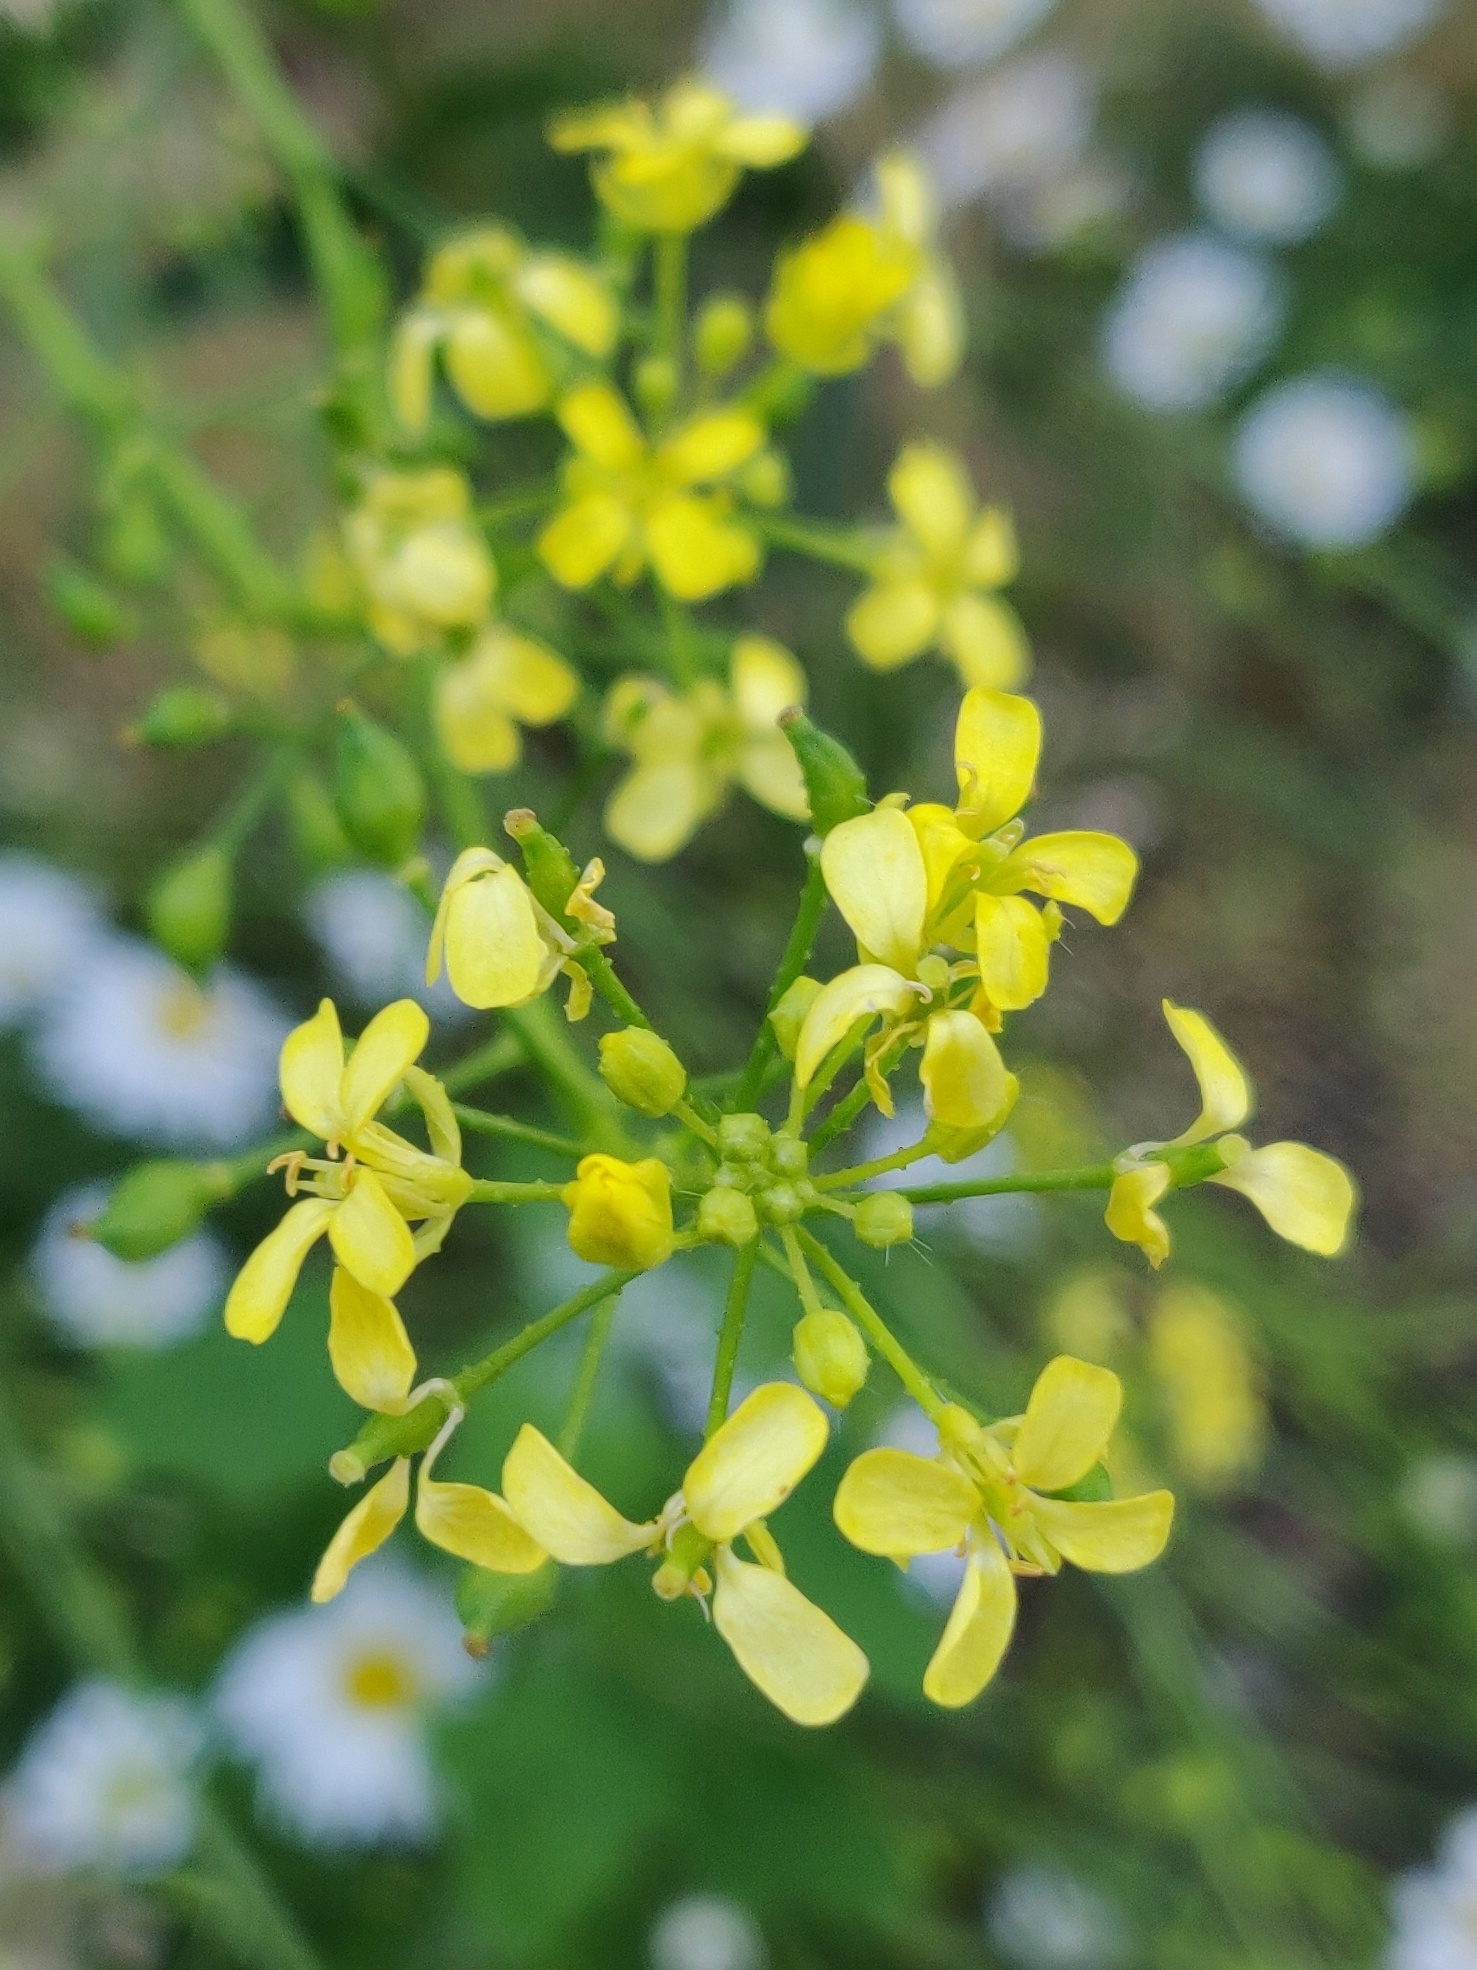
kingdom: Plantae
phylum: Tracheophyta
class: Magnoliopsida
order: Brassicales
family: Brassicaceae
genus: Bunias
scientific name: Bunias orientalis
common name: Warty-cabbage
